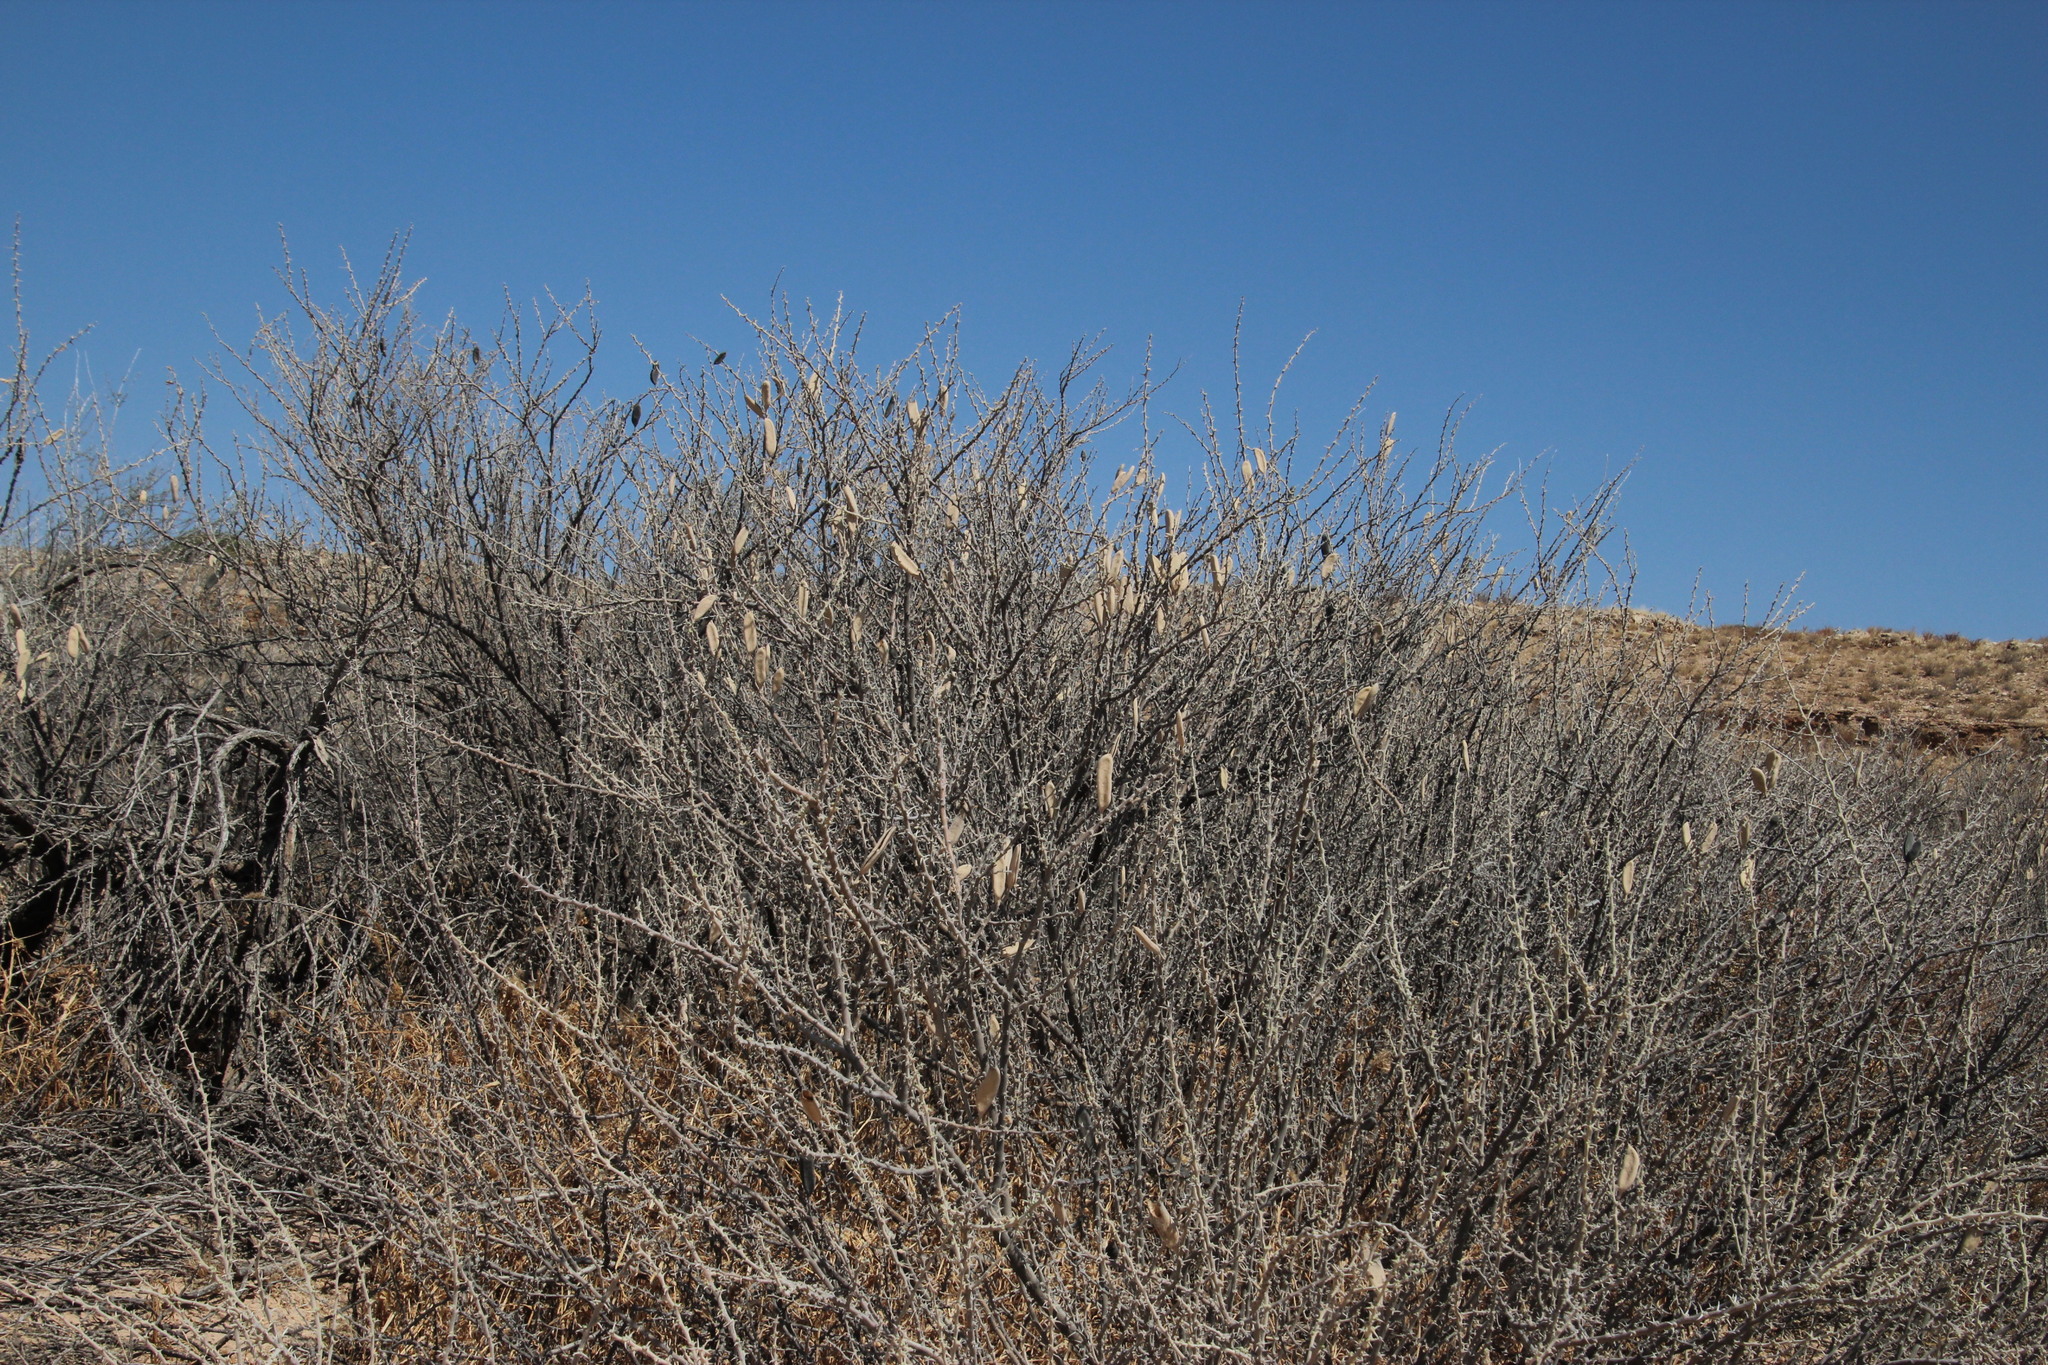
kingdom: Plantae
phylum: Tracheophyta
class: Magnoliopsida
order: Fabales
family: Fabaceae
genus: Vachellia
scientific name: Vachellia hebeclada
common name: Candle thorn
